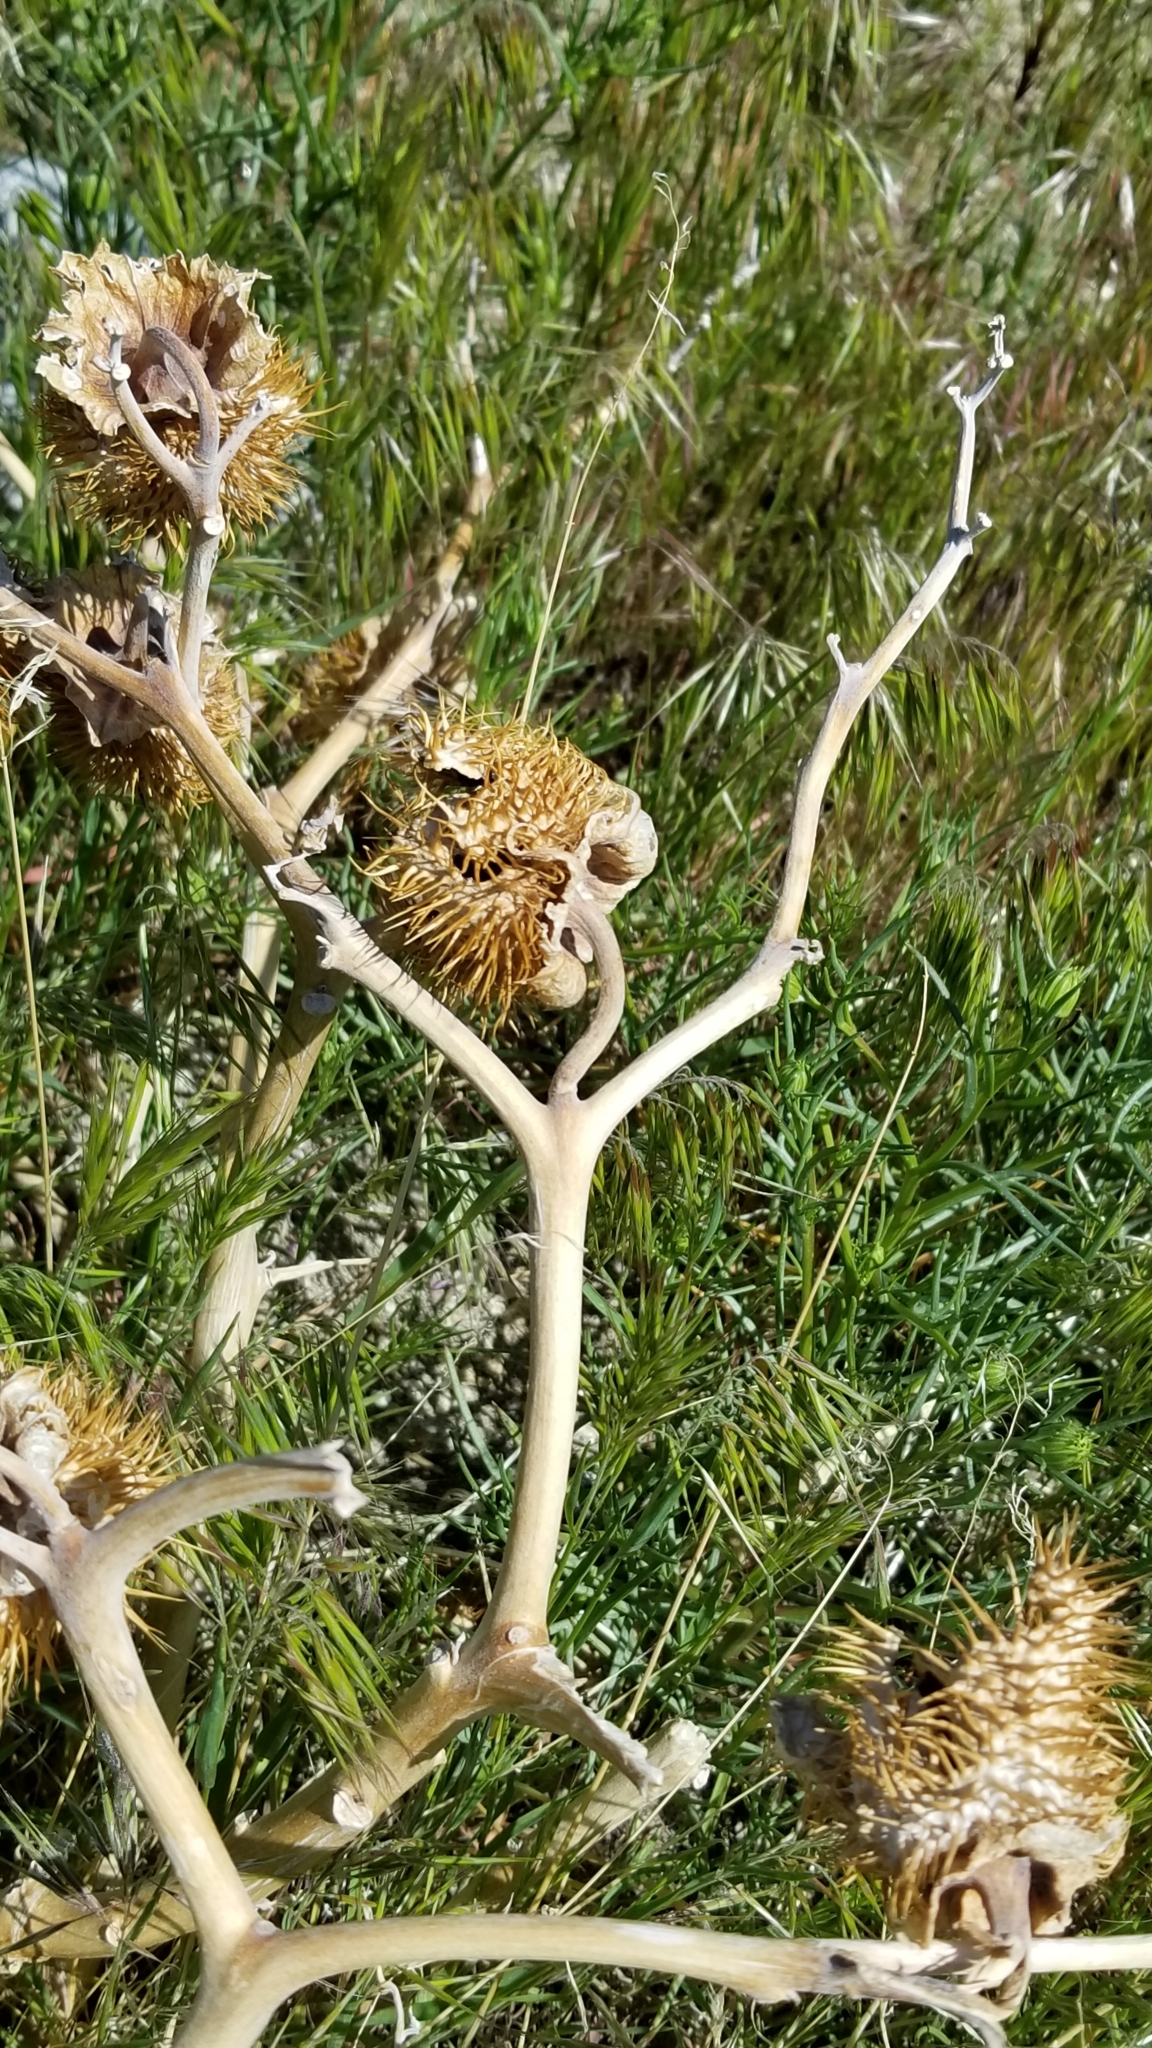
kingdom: Plantae
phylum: Tracheophyta
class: Magnoliopsida
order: Solanales
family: Solanaceae
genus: Datura
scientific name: Datura wrightii
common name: Sacred thorn-apple
